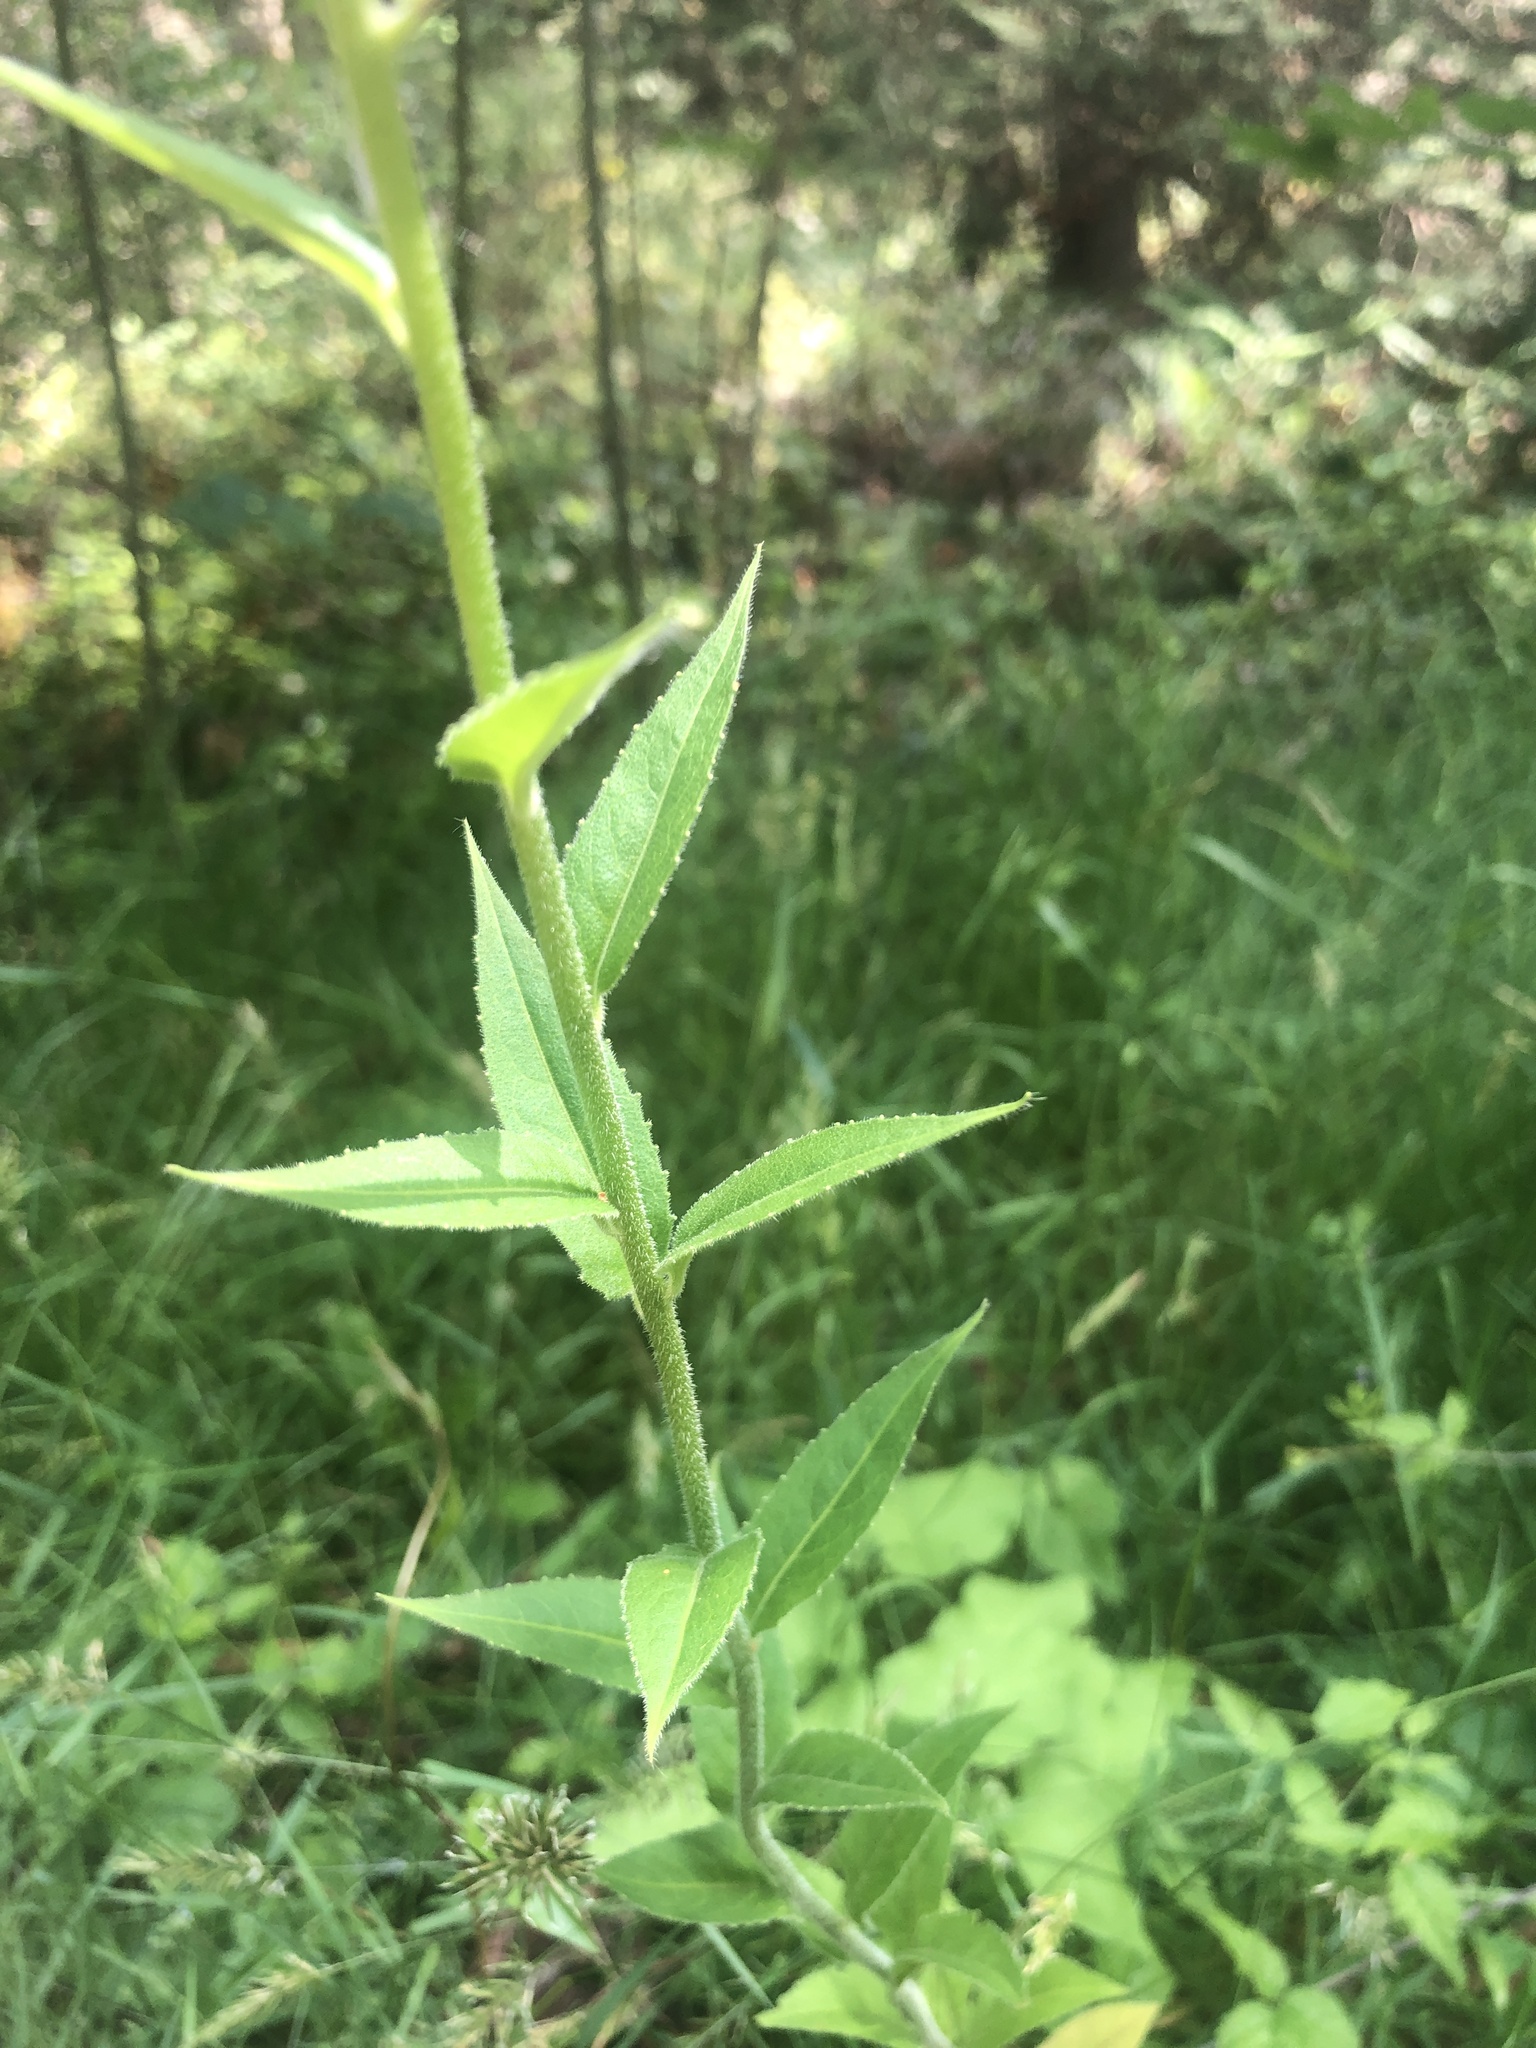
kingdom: Plantae
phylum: Tracheophyta
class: Magnoliopsida
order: Brassicales
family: Brassicaceae
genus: Hesperis
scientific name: Hesperis matronalis
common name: Dame's-violet
